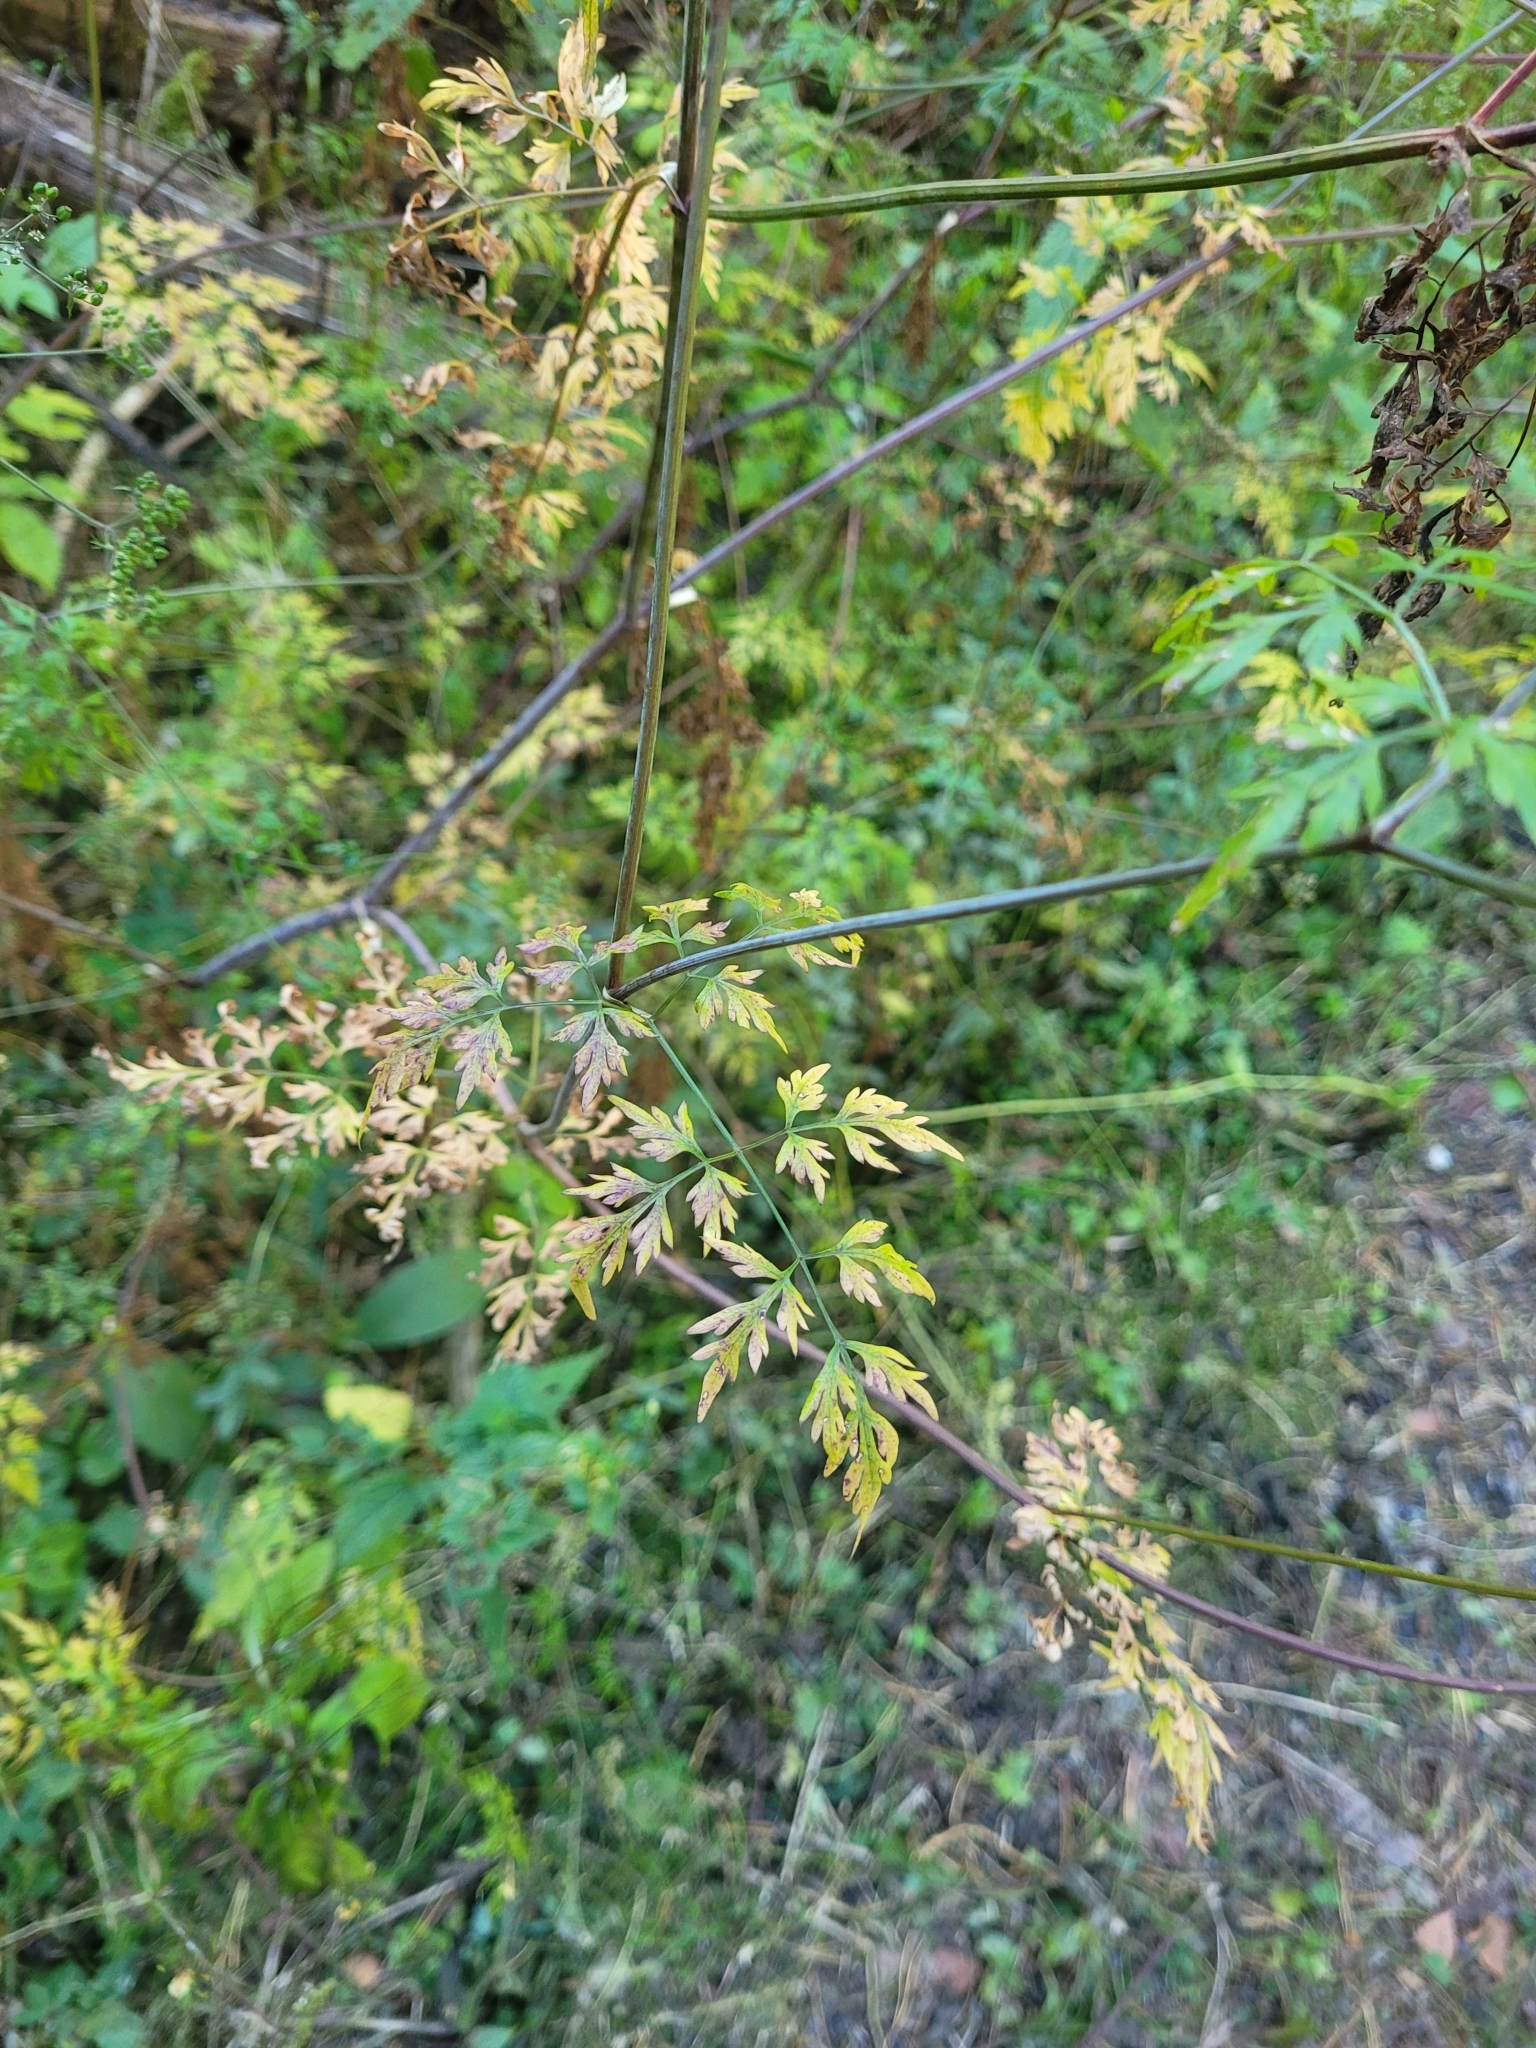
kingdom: Plantae
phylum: Tracheophyta
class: Magnoliopsida
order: Apiales
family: Apiaceae
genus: Aethusa
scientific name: Aethusa cynapium
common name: Fool's parsley
